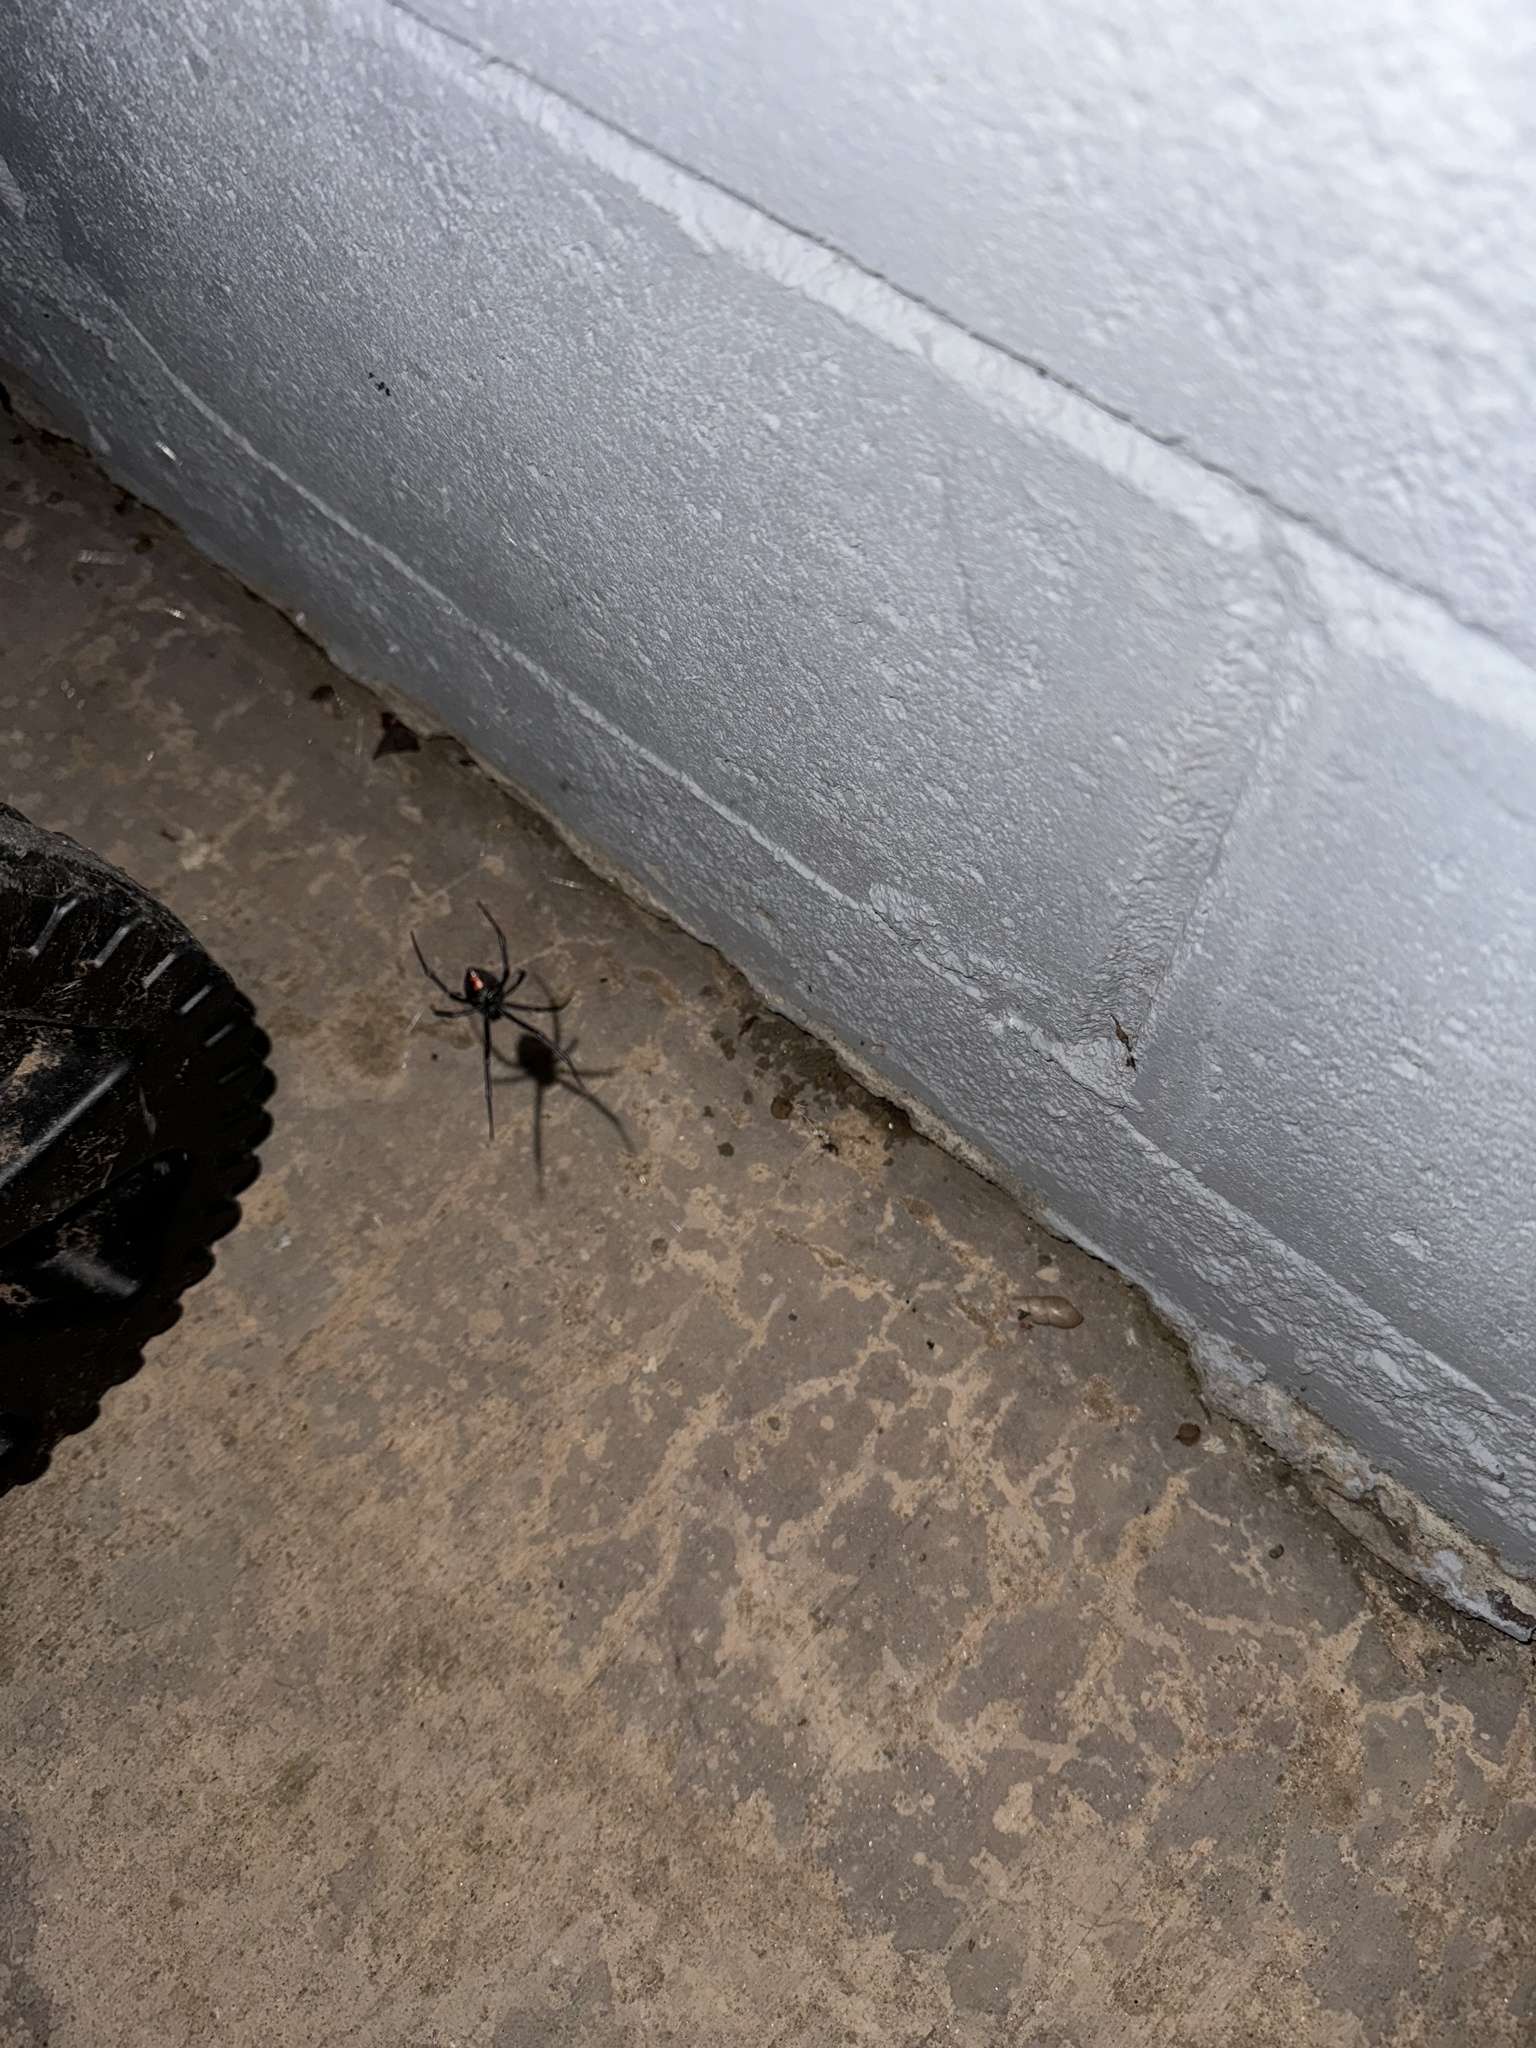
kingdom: Animalia
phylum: Arthropoda
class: Arachnida
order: Araneae
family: Theridiidae
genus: Latrodectus
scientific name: Latrodectus hesperus
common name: Western black widow
